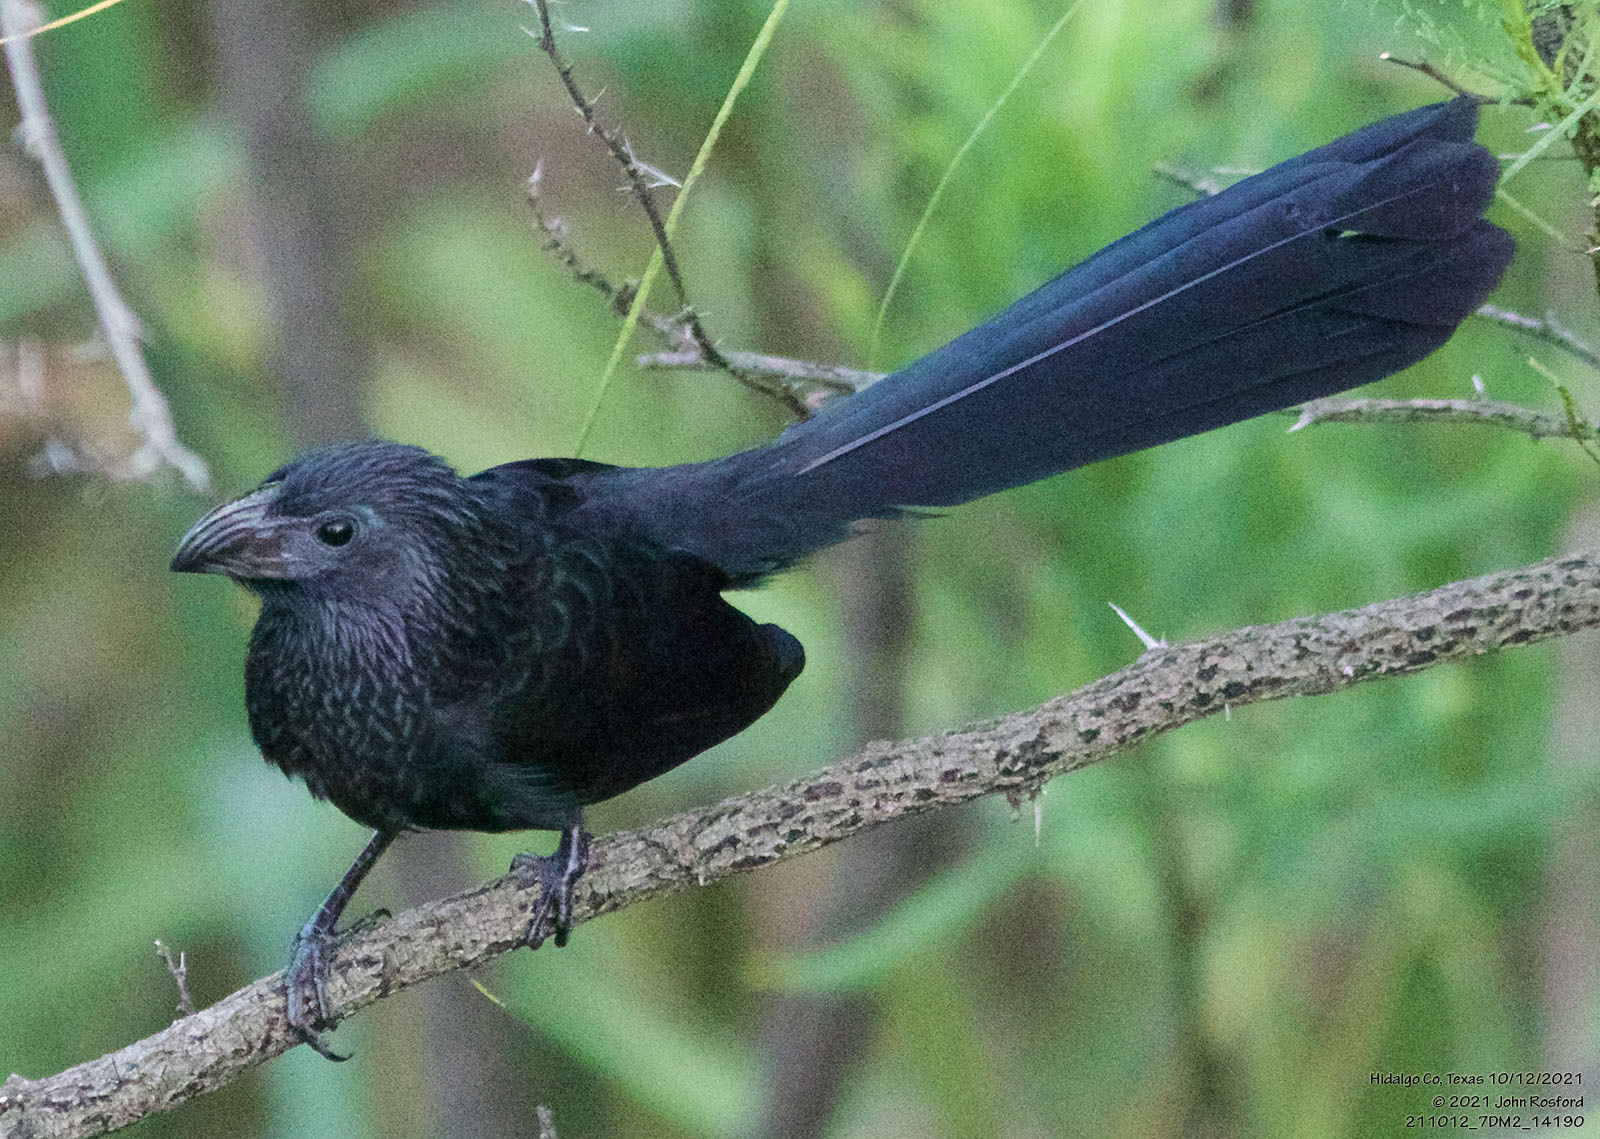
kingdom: Animalia
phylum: Chordata
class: Aves
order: Cuculiformes
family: Cuculidae
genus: Crotophaga
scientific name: Crotophaga sulcirostris
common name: Groove-billed ani
